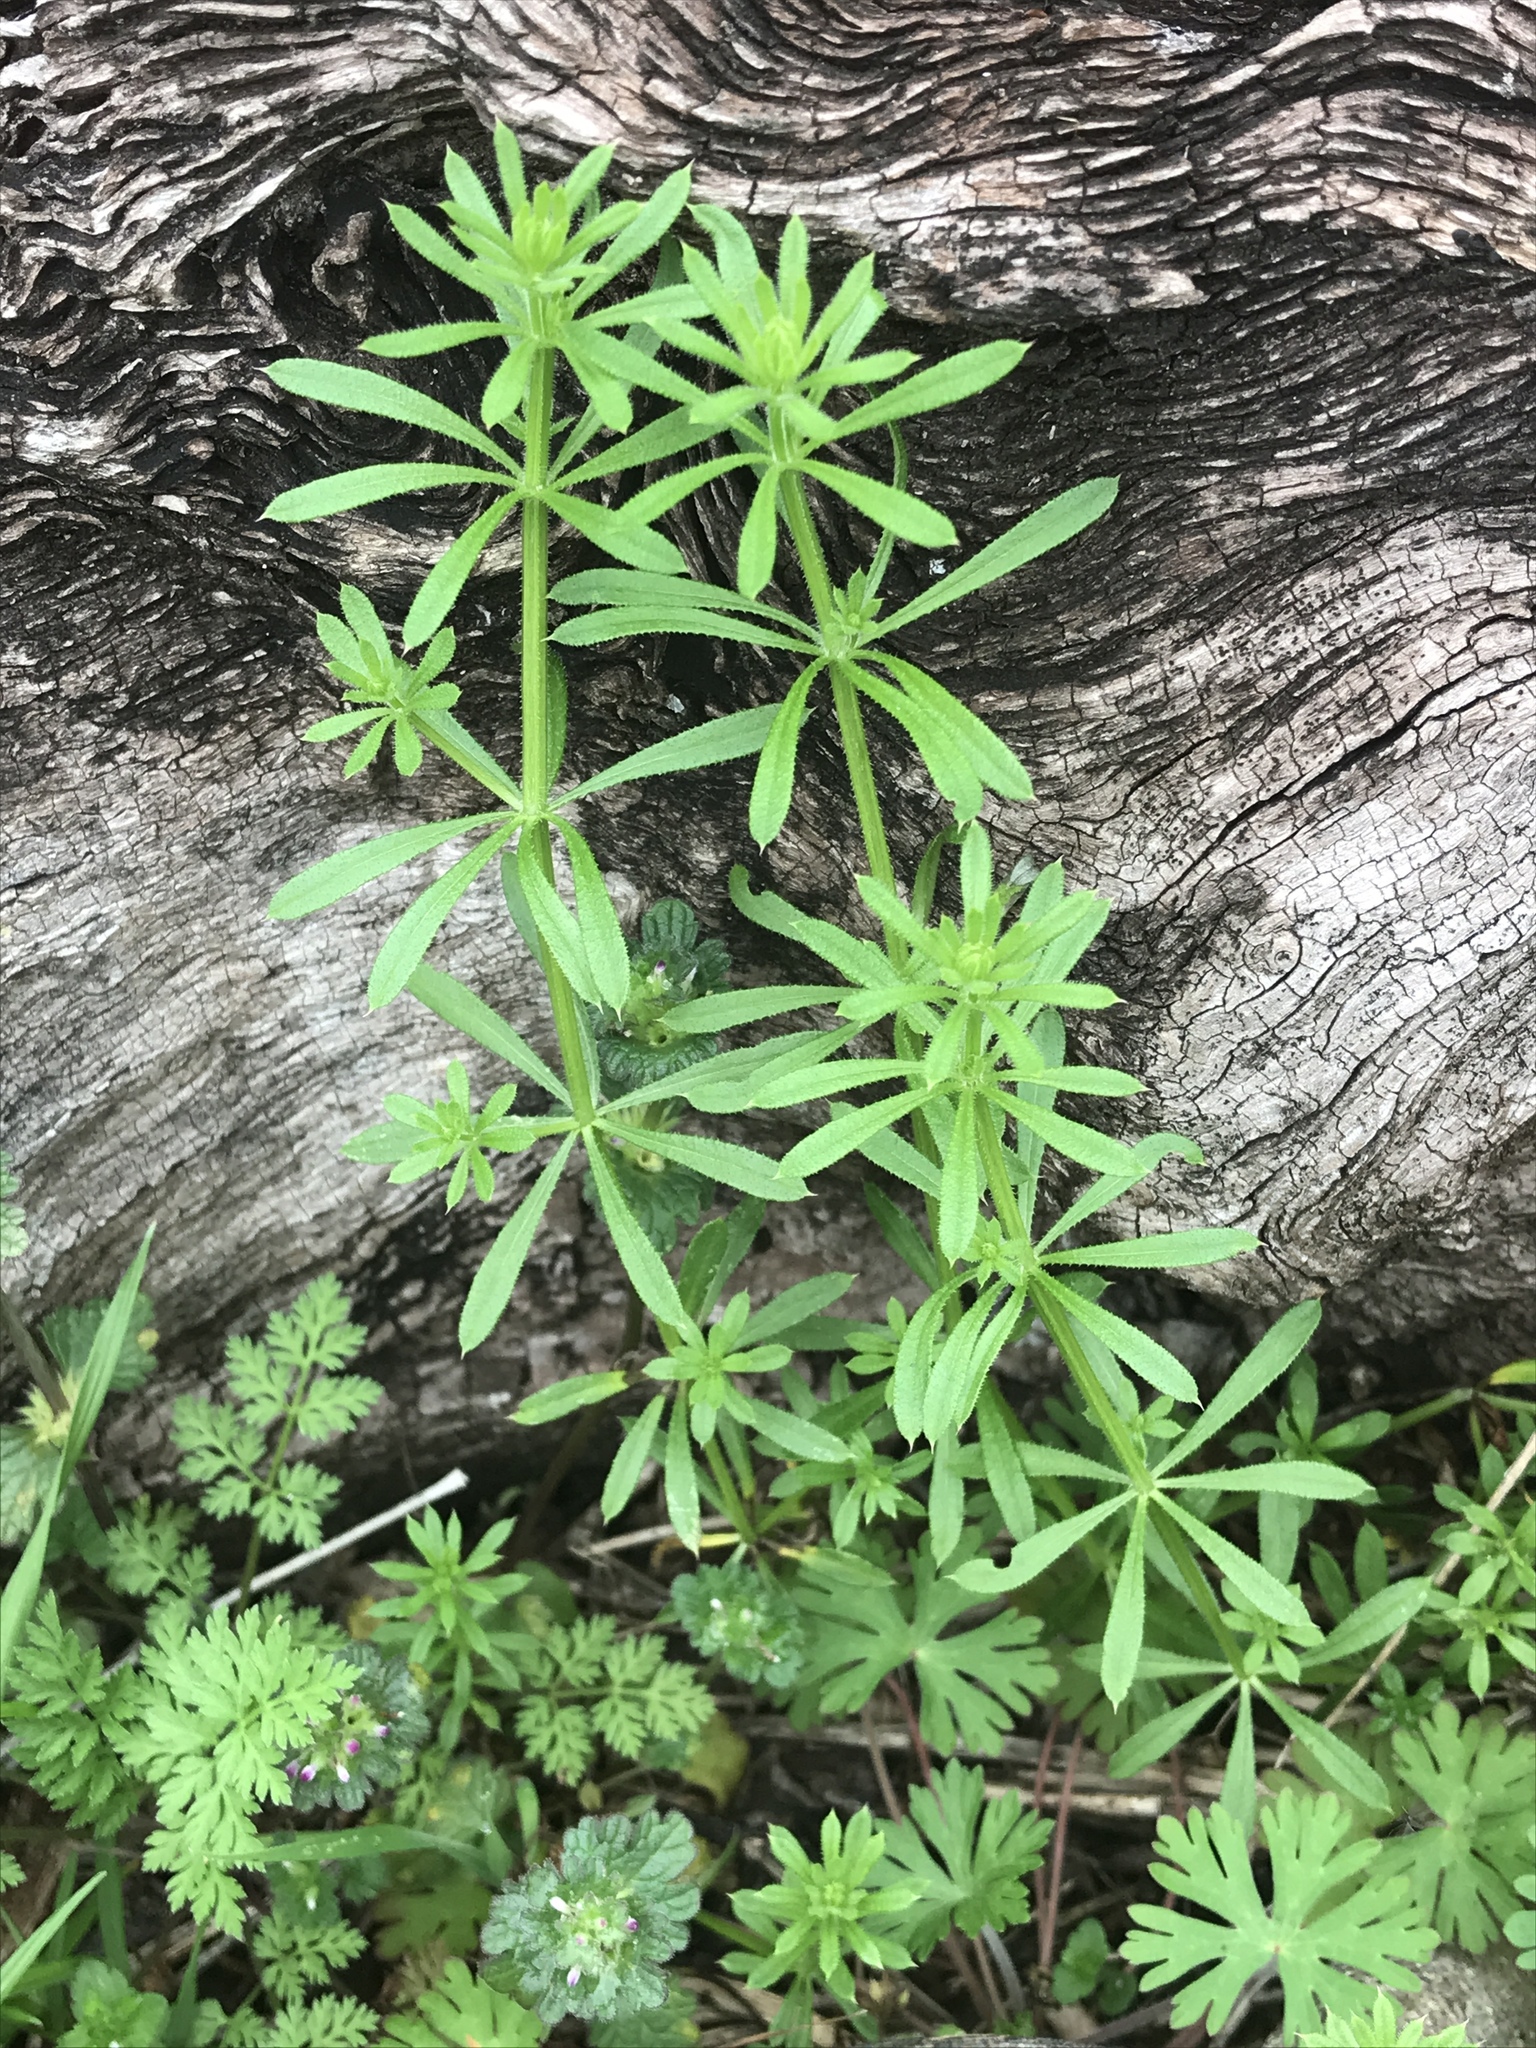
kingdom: Plantae
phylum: Tracheophyta
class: Magnoliopsida
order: Gentianales
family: Rubiaceae
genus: Galium
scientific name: Galium aparine
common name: Cleavers
